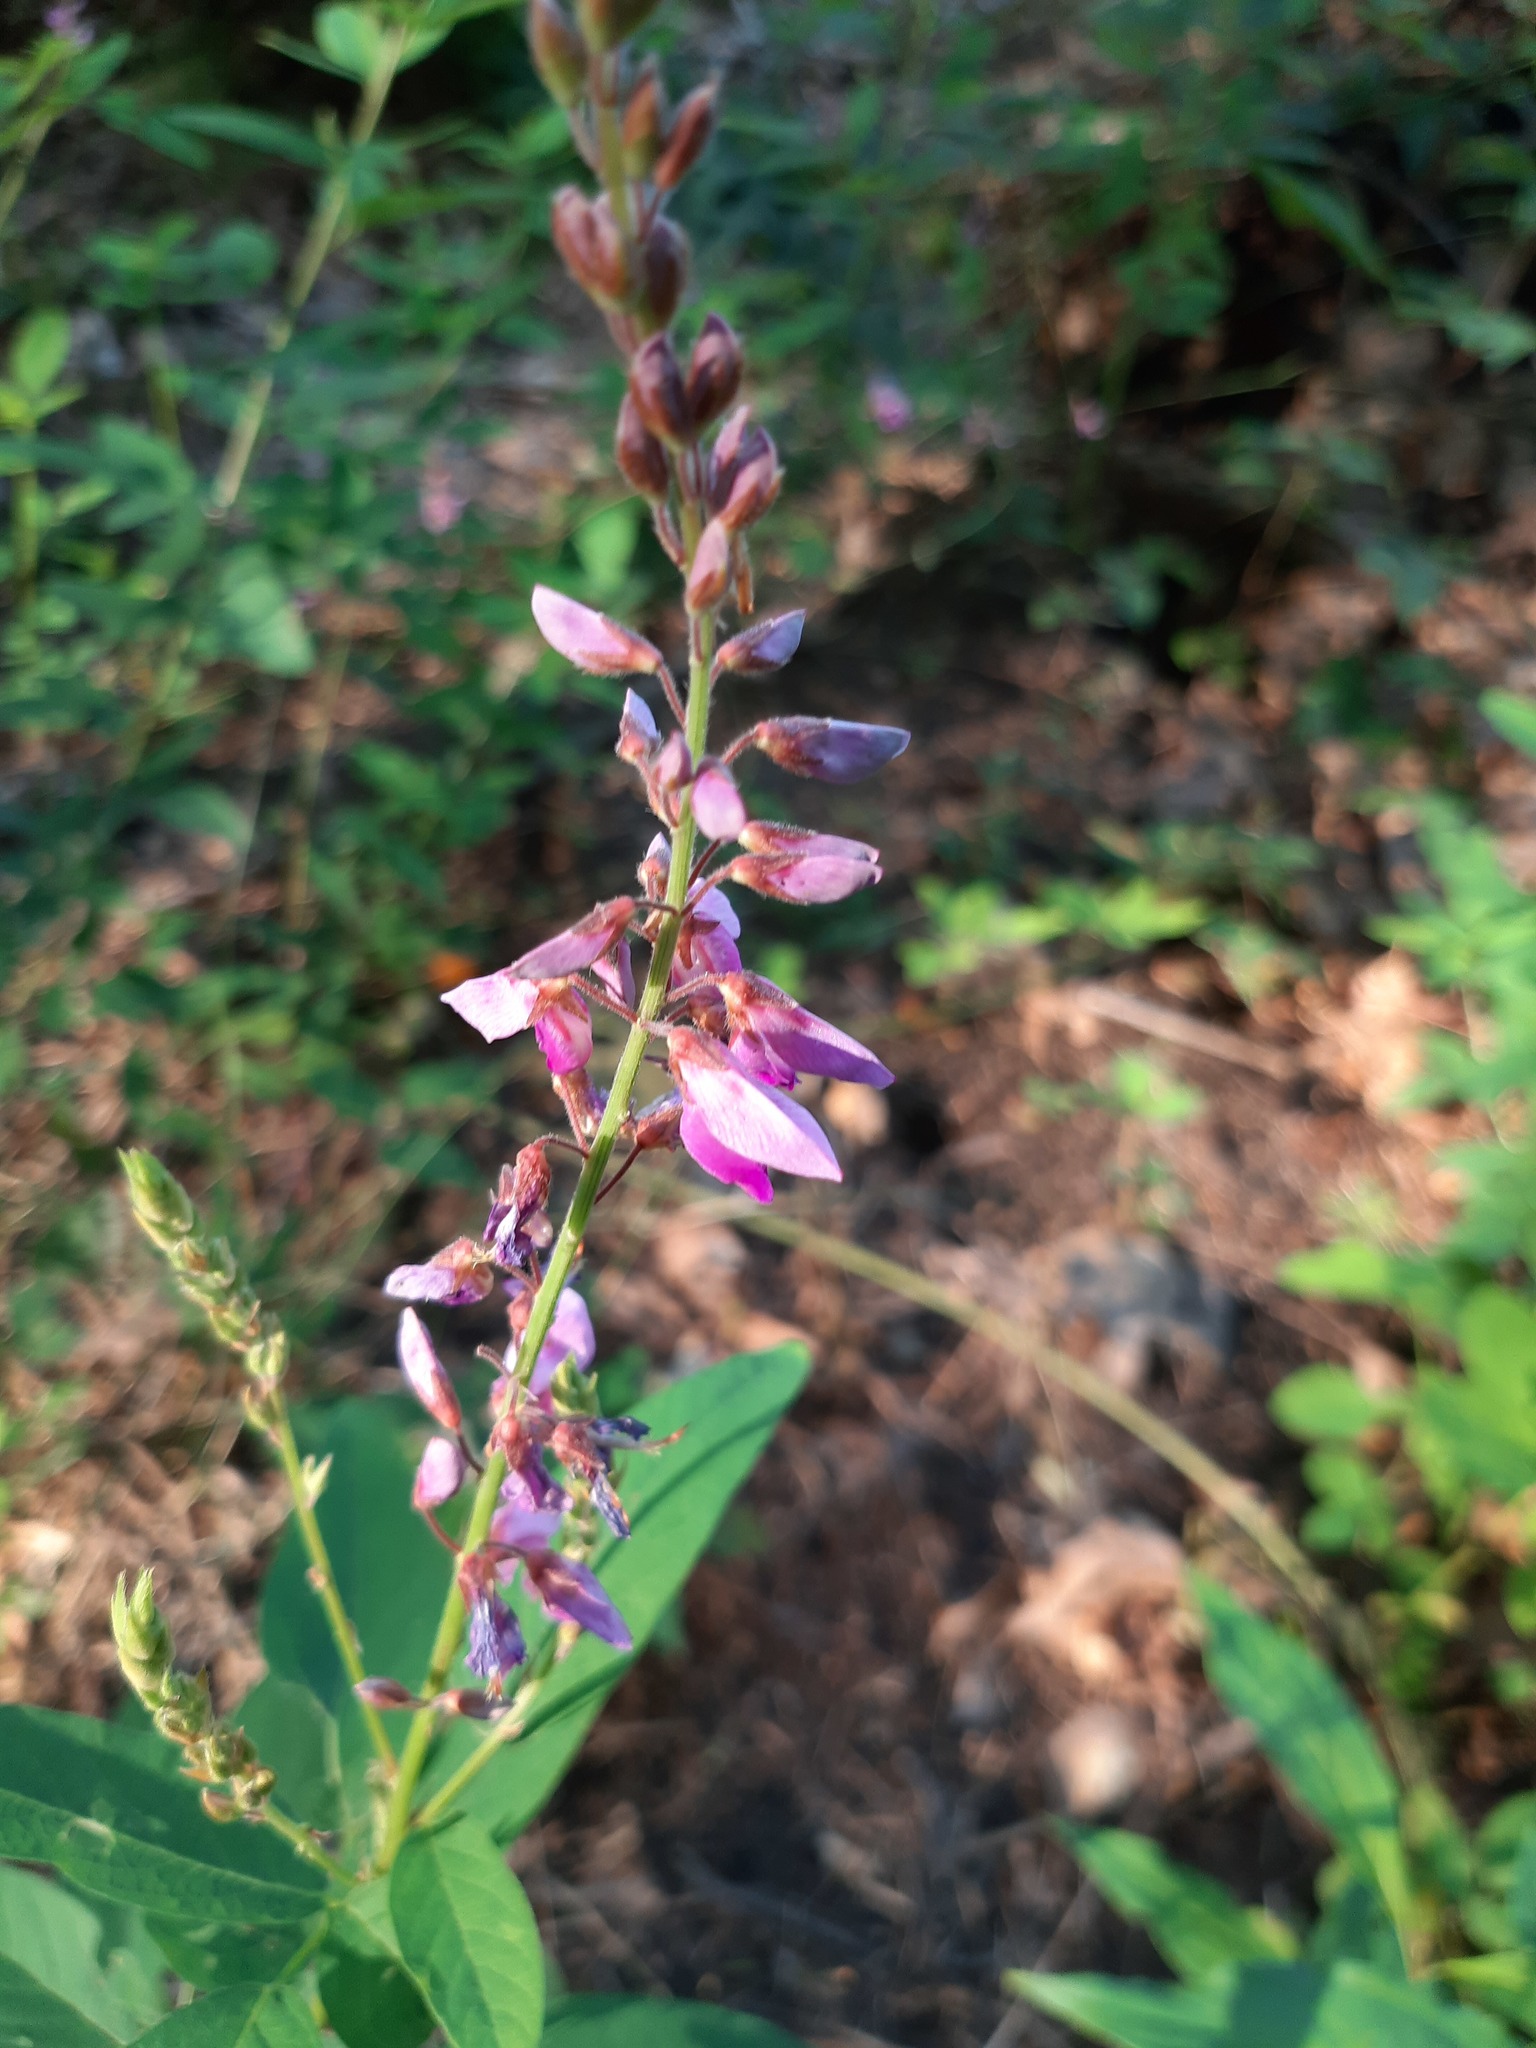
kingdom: Plantae
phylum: Tracheophyta
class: Magnoliopsida
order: Fabales
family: Fabaceae
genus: Desmodium
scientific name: Desmodium canadense
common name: Canada tick-trefoil
